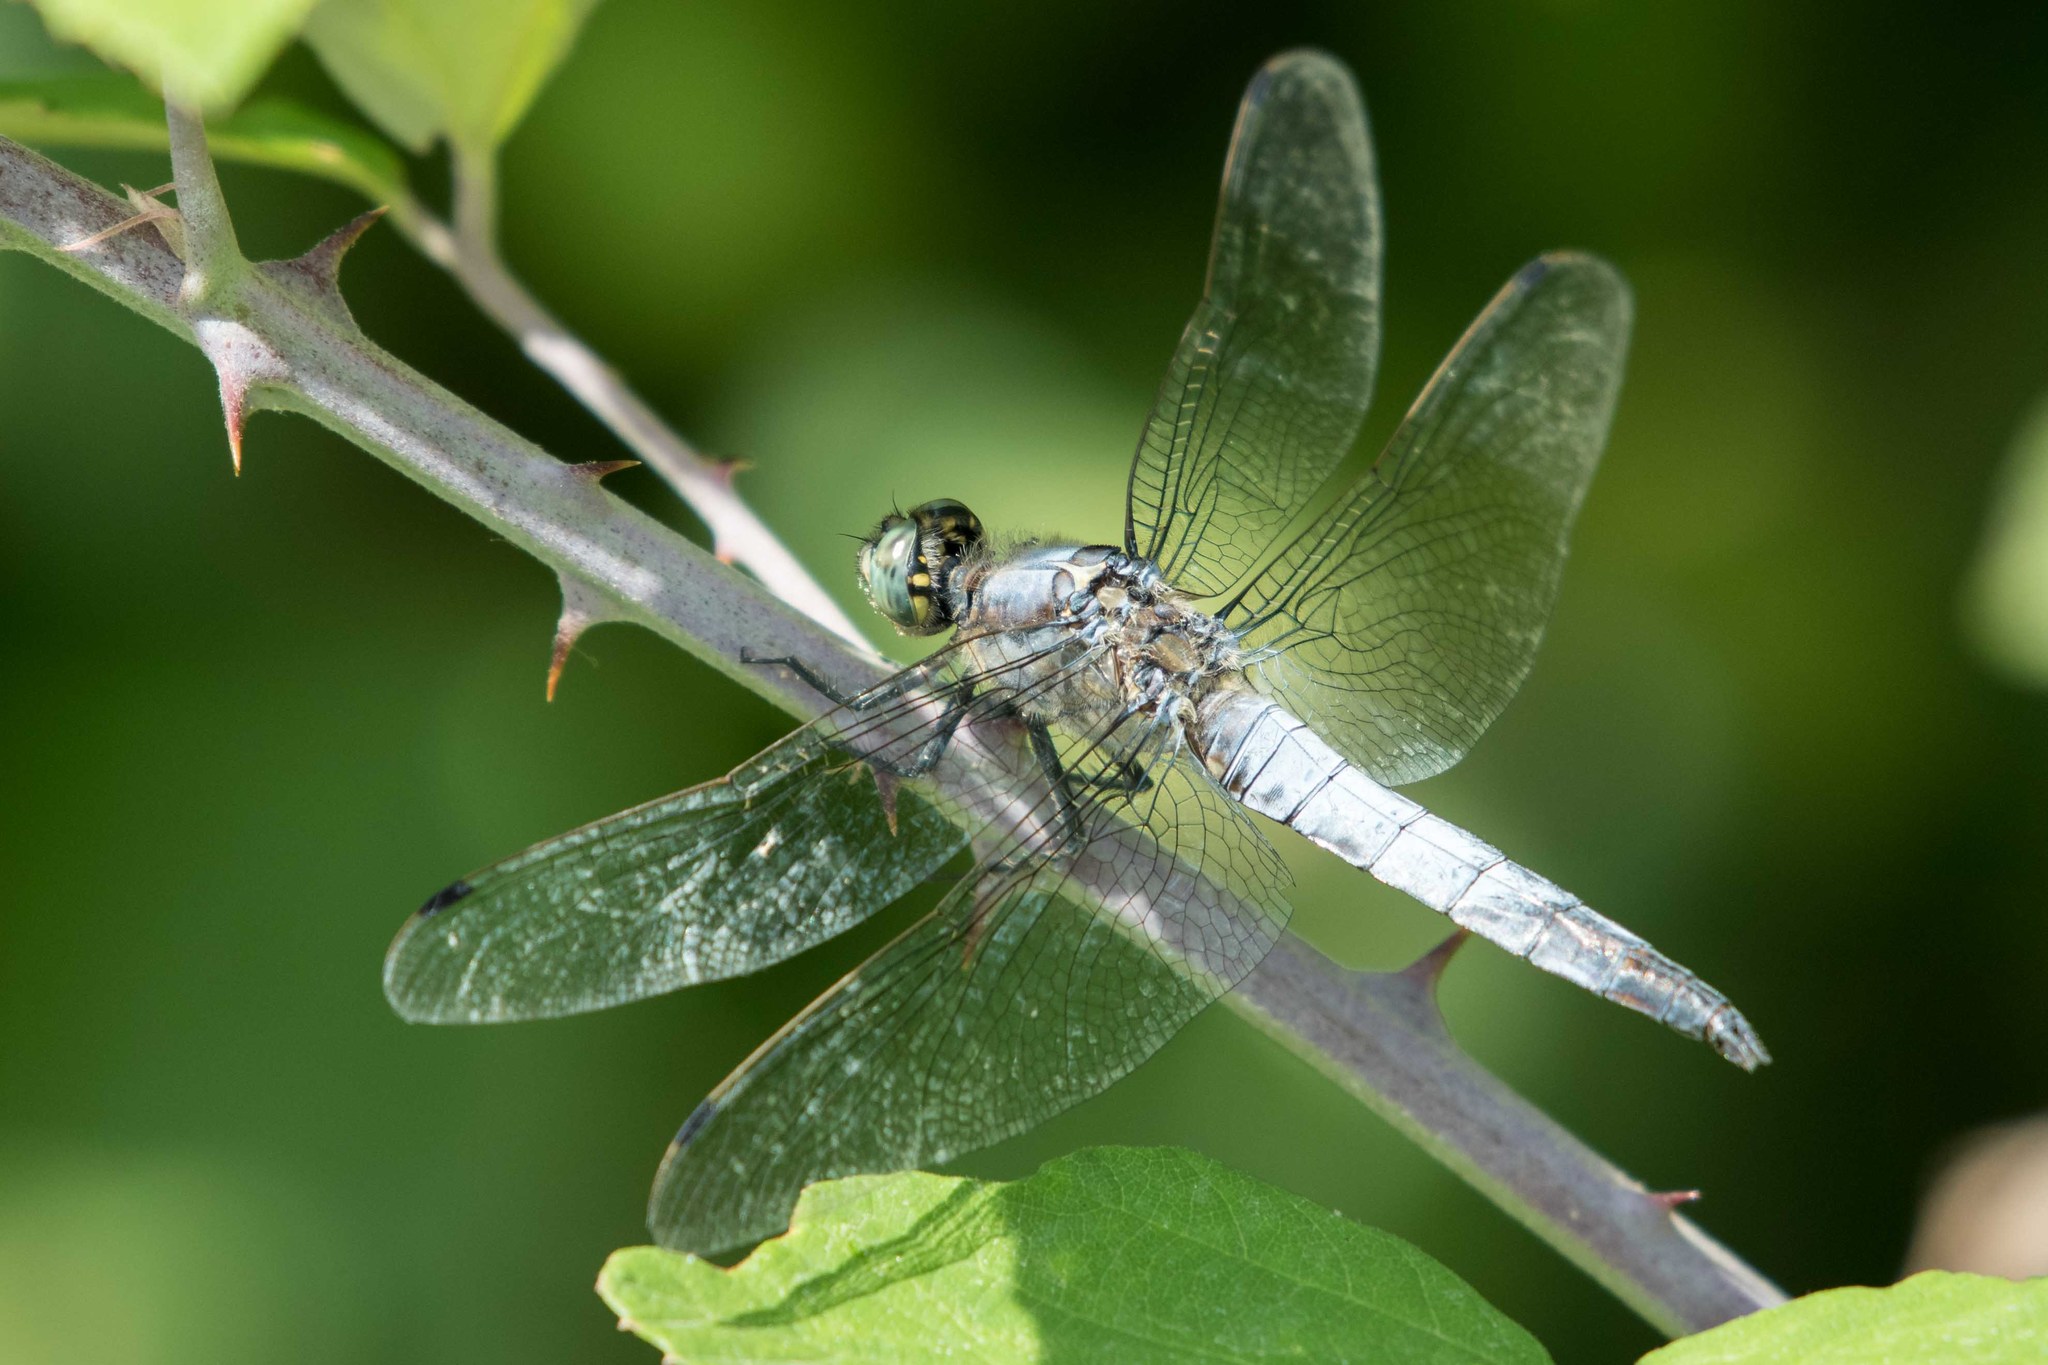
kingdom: Animalia
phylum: Arthropoda
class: Insecta
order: Odonata
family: Libellulidae
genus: Orthetrum
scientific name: Orthetrum cancellatum
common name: Black-tailed skimmer
